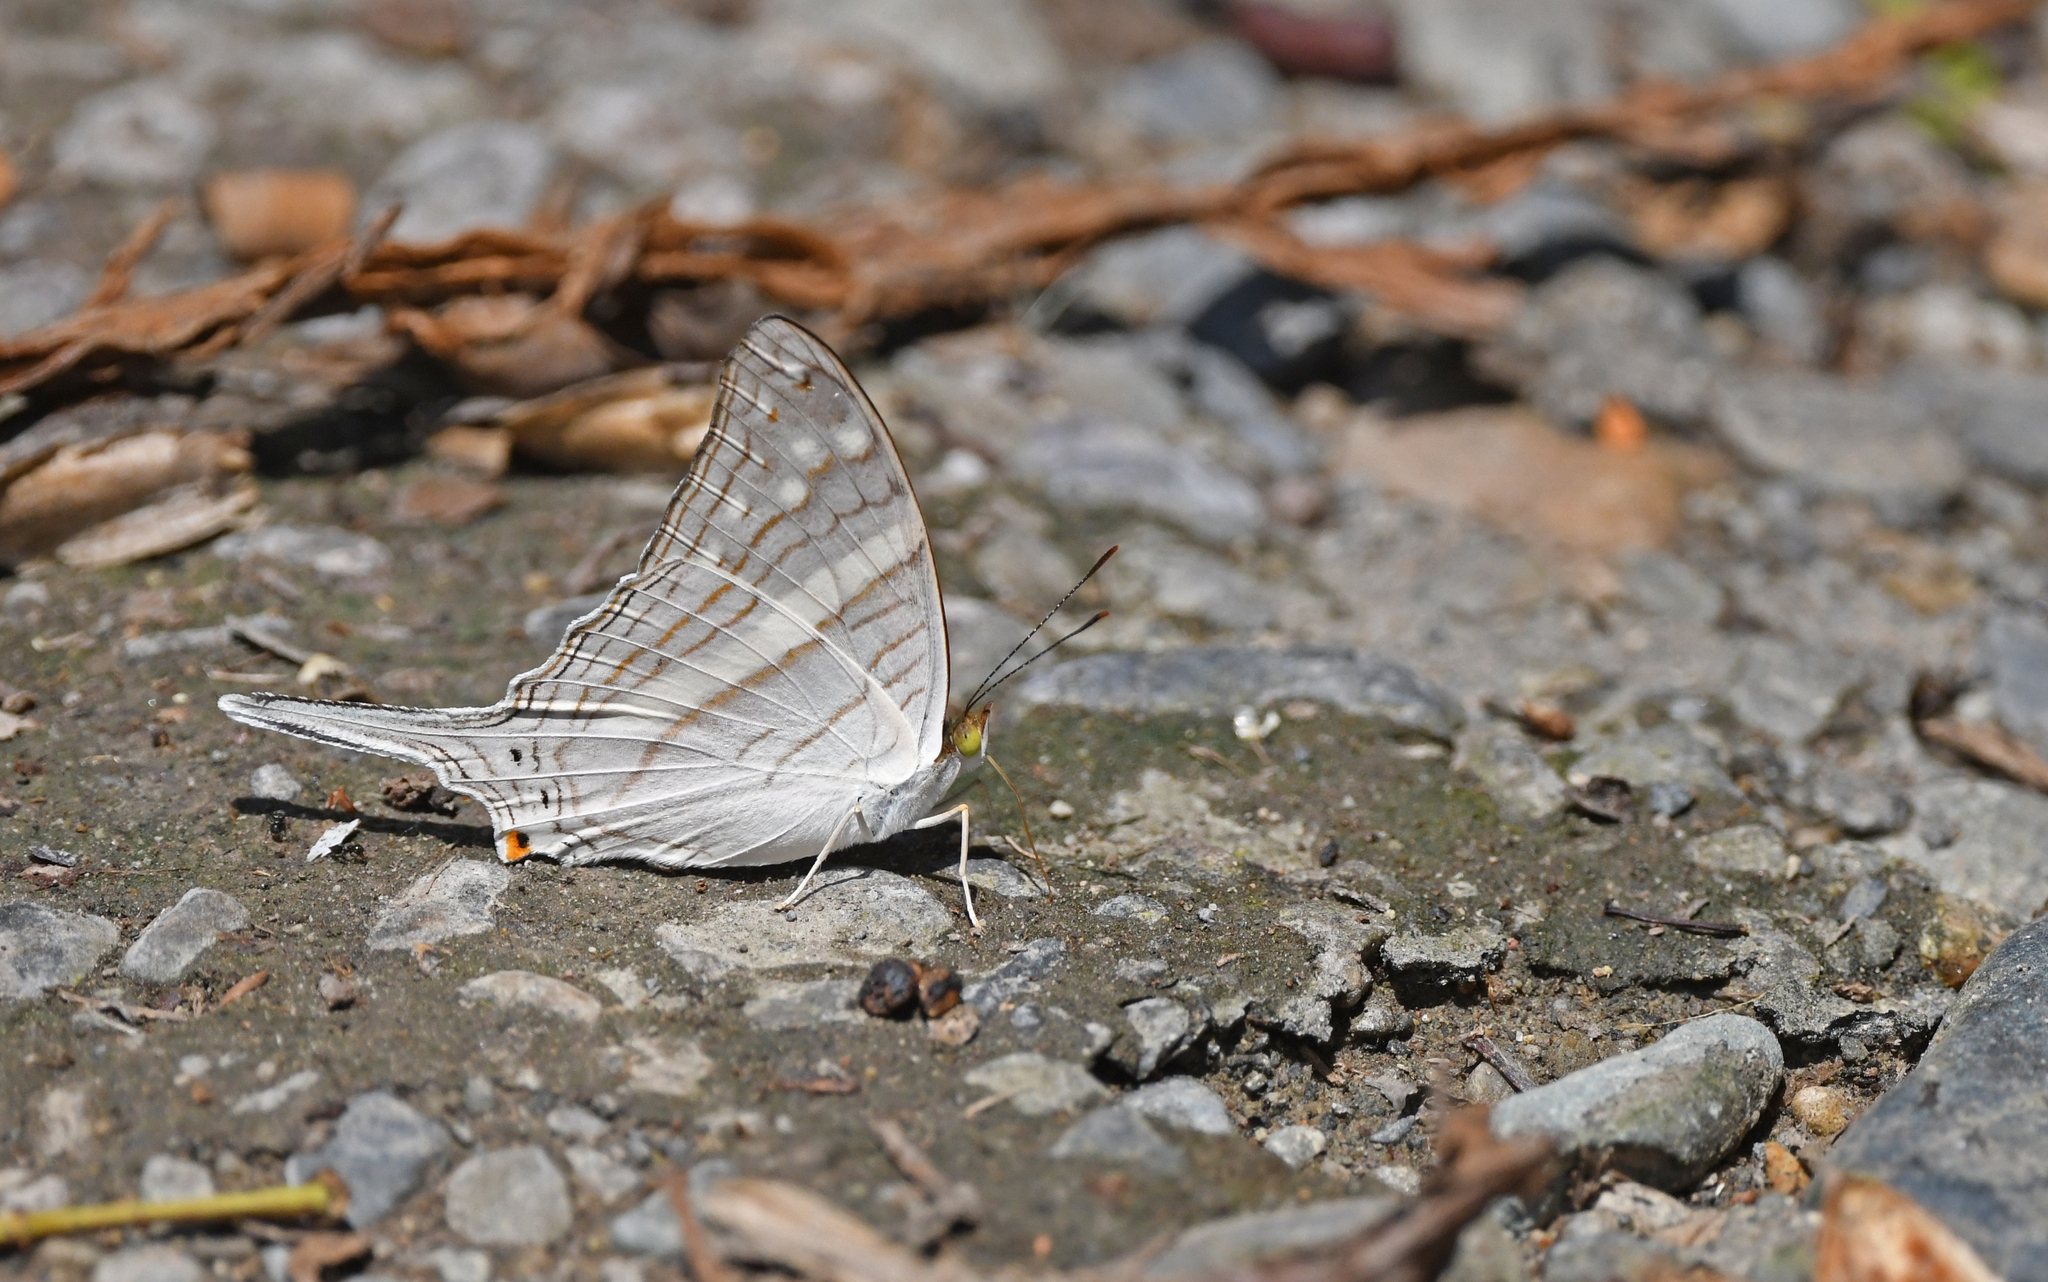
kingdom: Animalia
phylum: Arthropoda
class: Insecta
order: Lepidoptera
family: Nymphalidae
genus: Marpesia
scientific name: Marpesia crethon
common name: Crethon daggerwing
